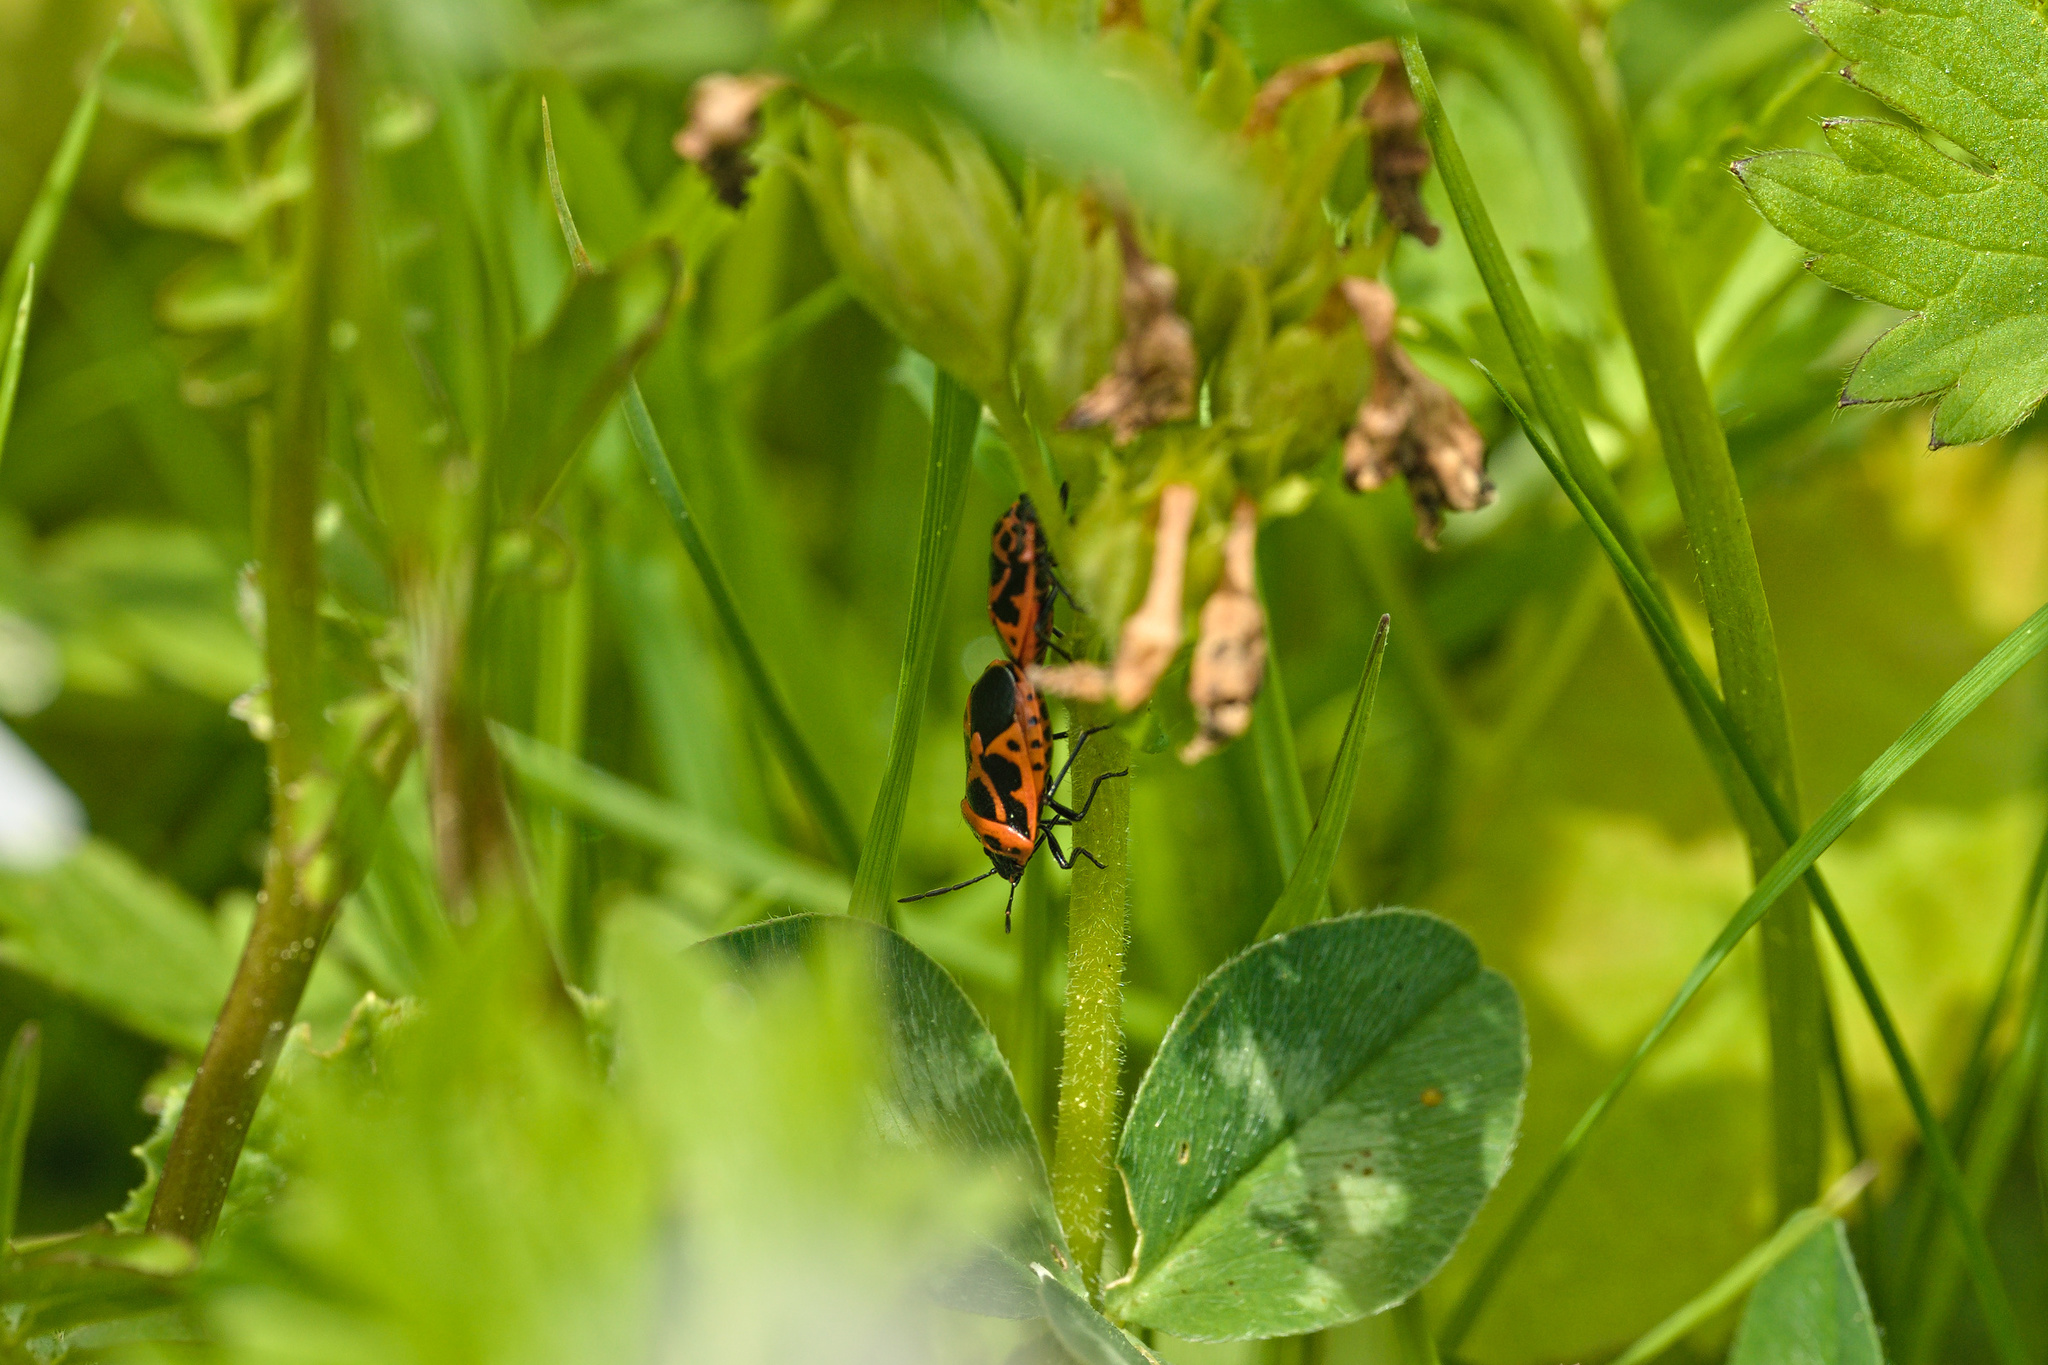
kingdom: Animalia
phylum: Arthropoda
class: Insecta
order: Hemiptera
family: Pentatomidae
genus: Eurydema
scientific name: Eurydema dominulus
